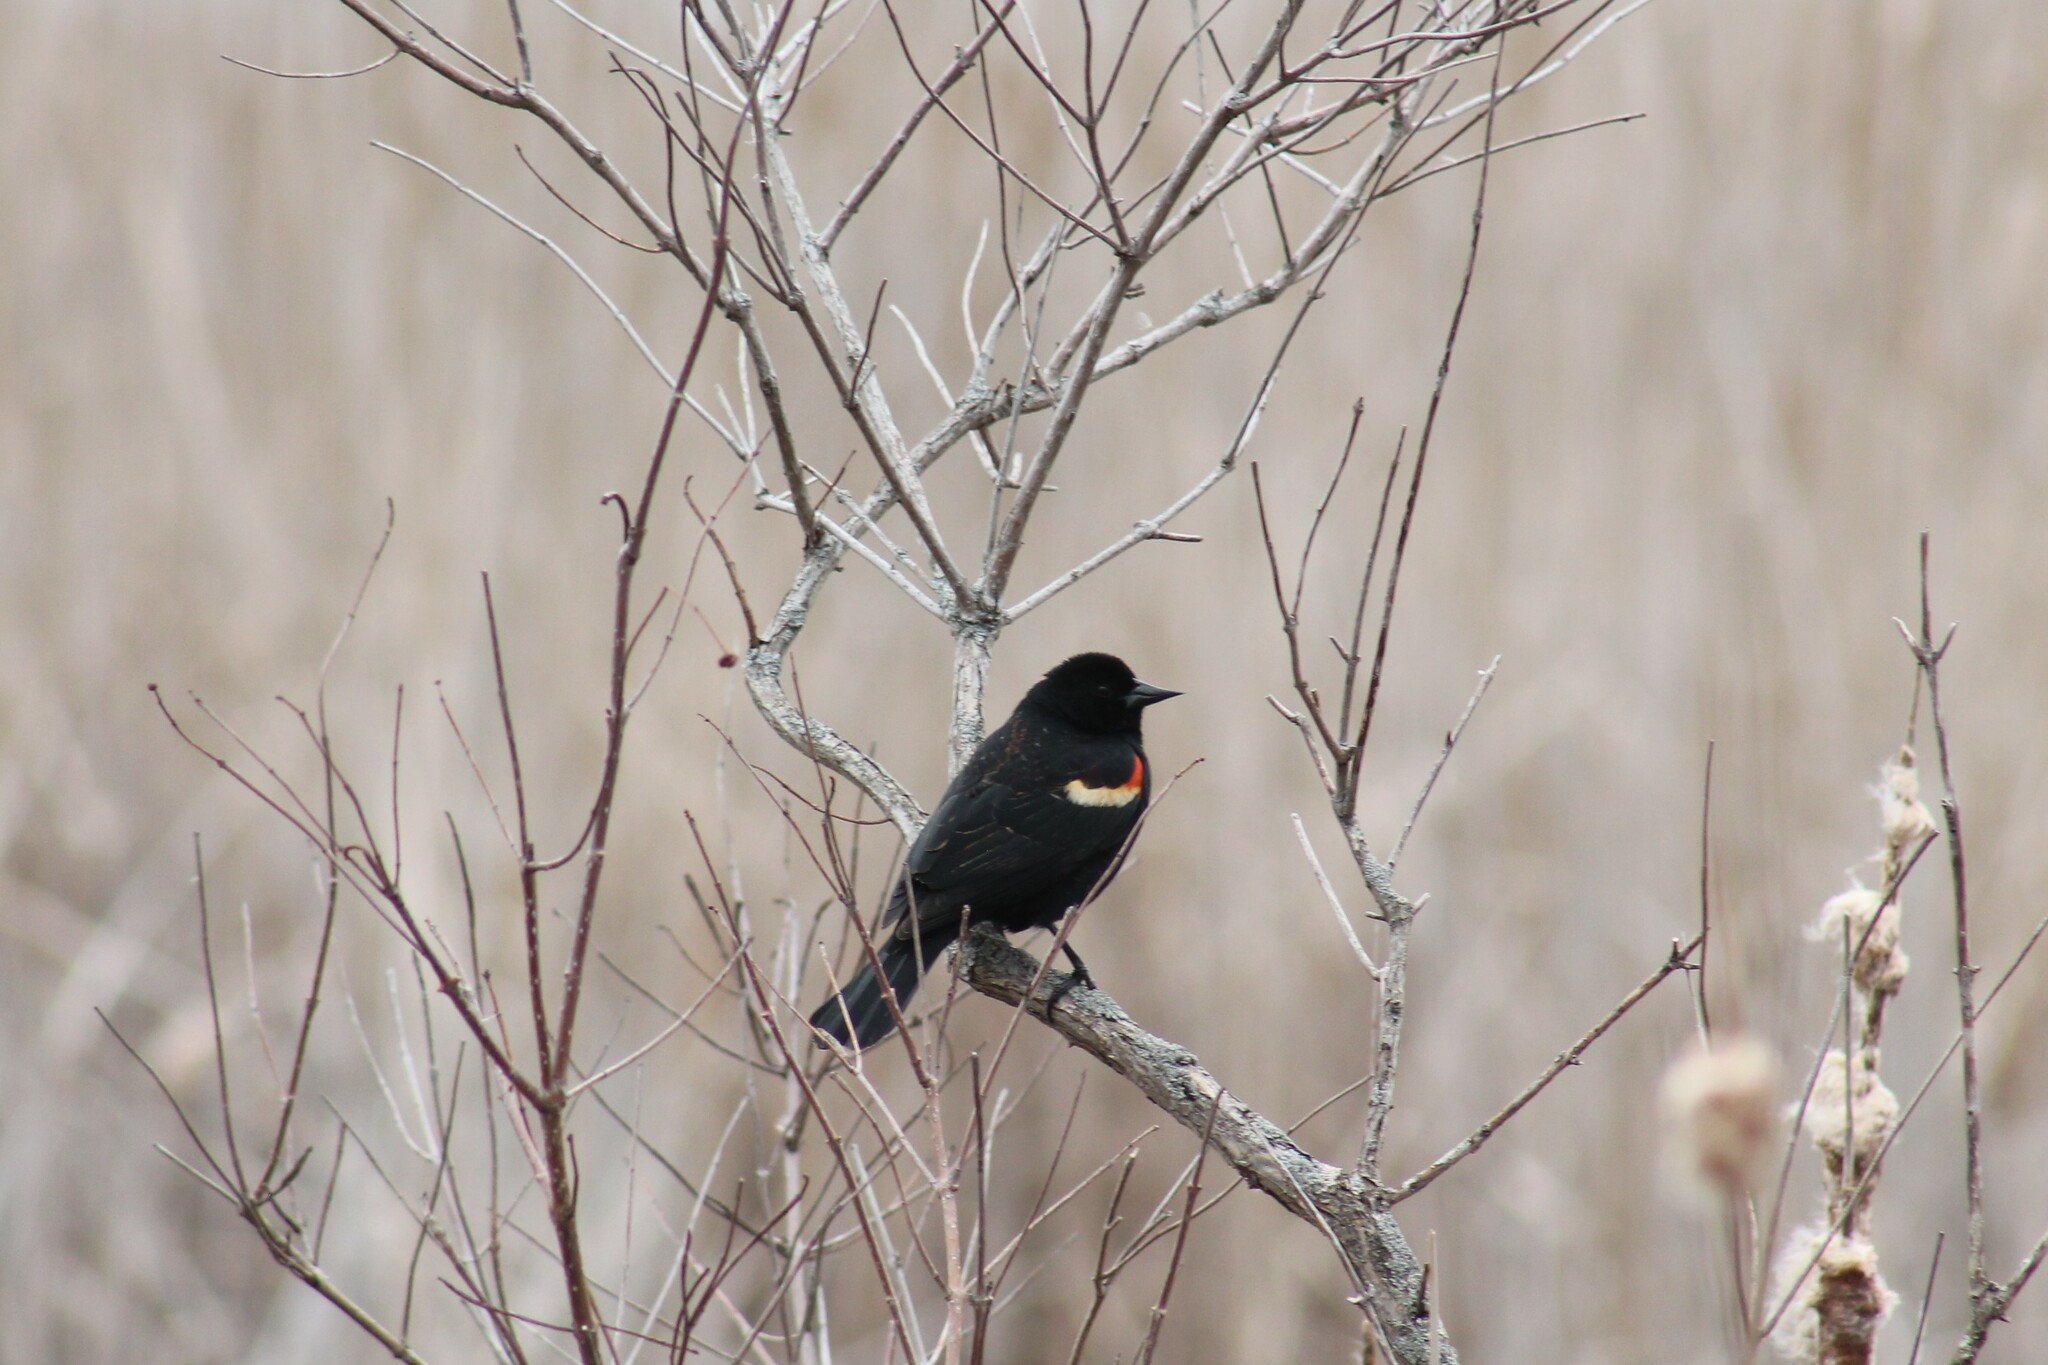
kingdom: Animalia
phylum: Chordata
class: Aves
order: Passeriformes
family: Icteridae
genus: Agelaius
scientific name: Agelaius phoeniceus
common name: Red-winged blackbird
